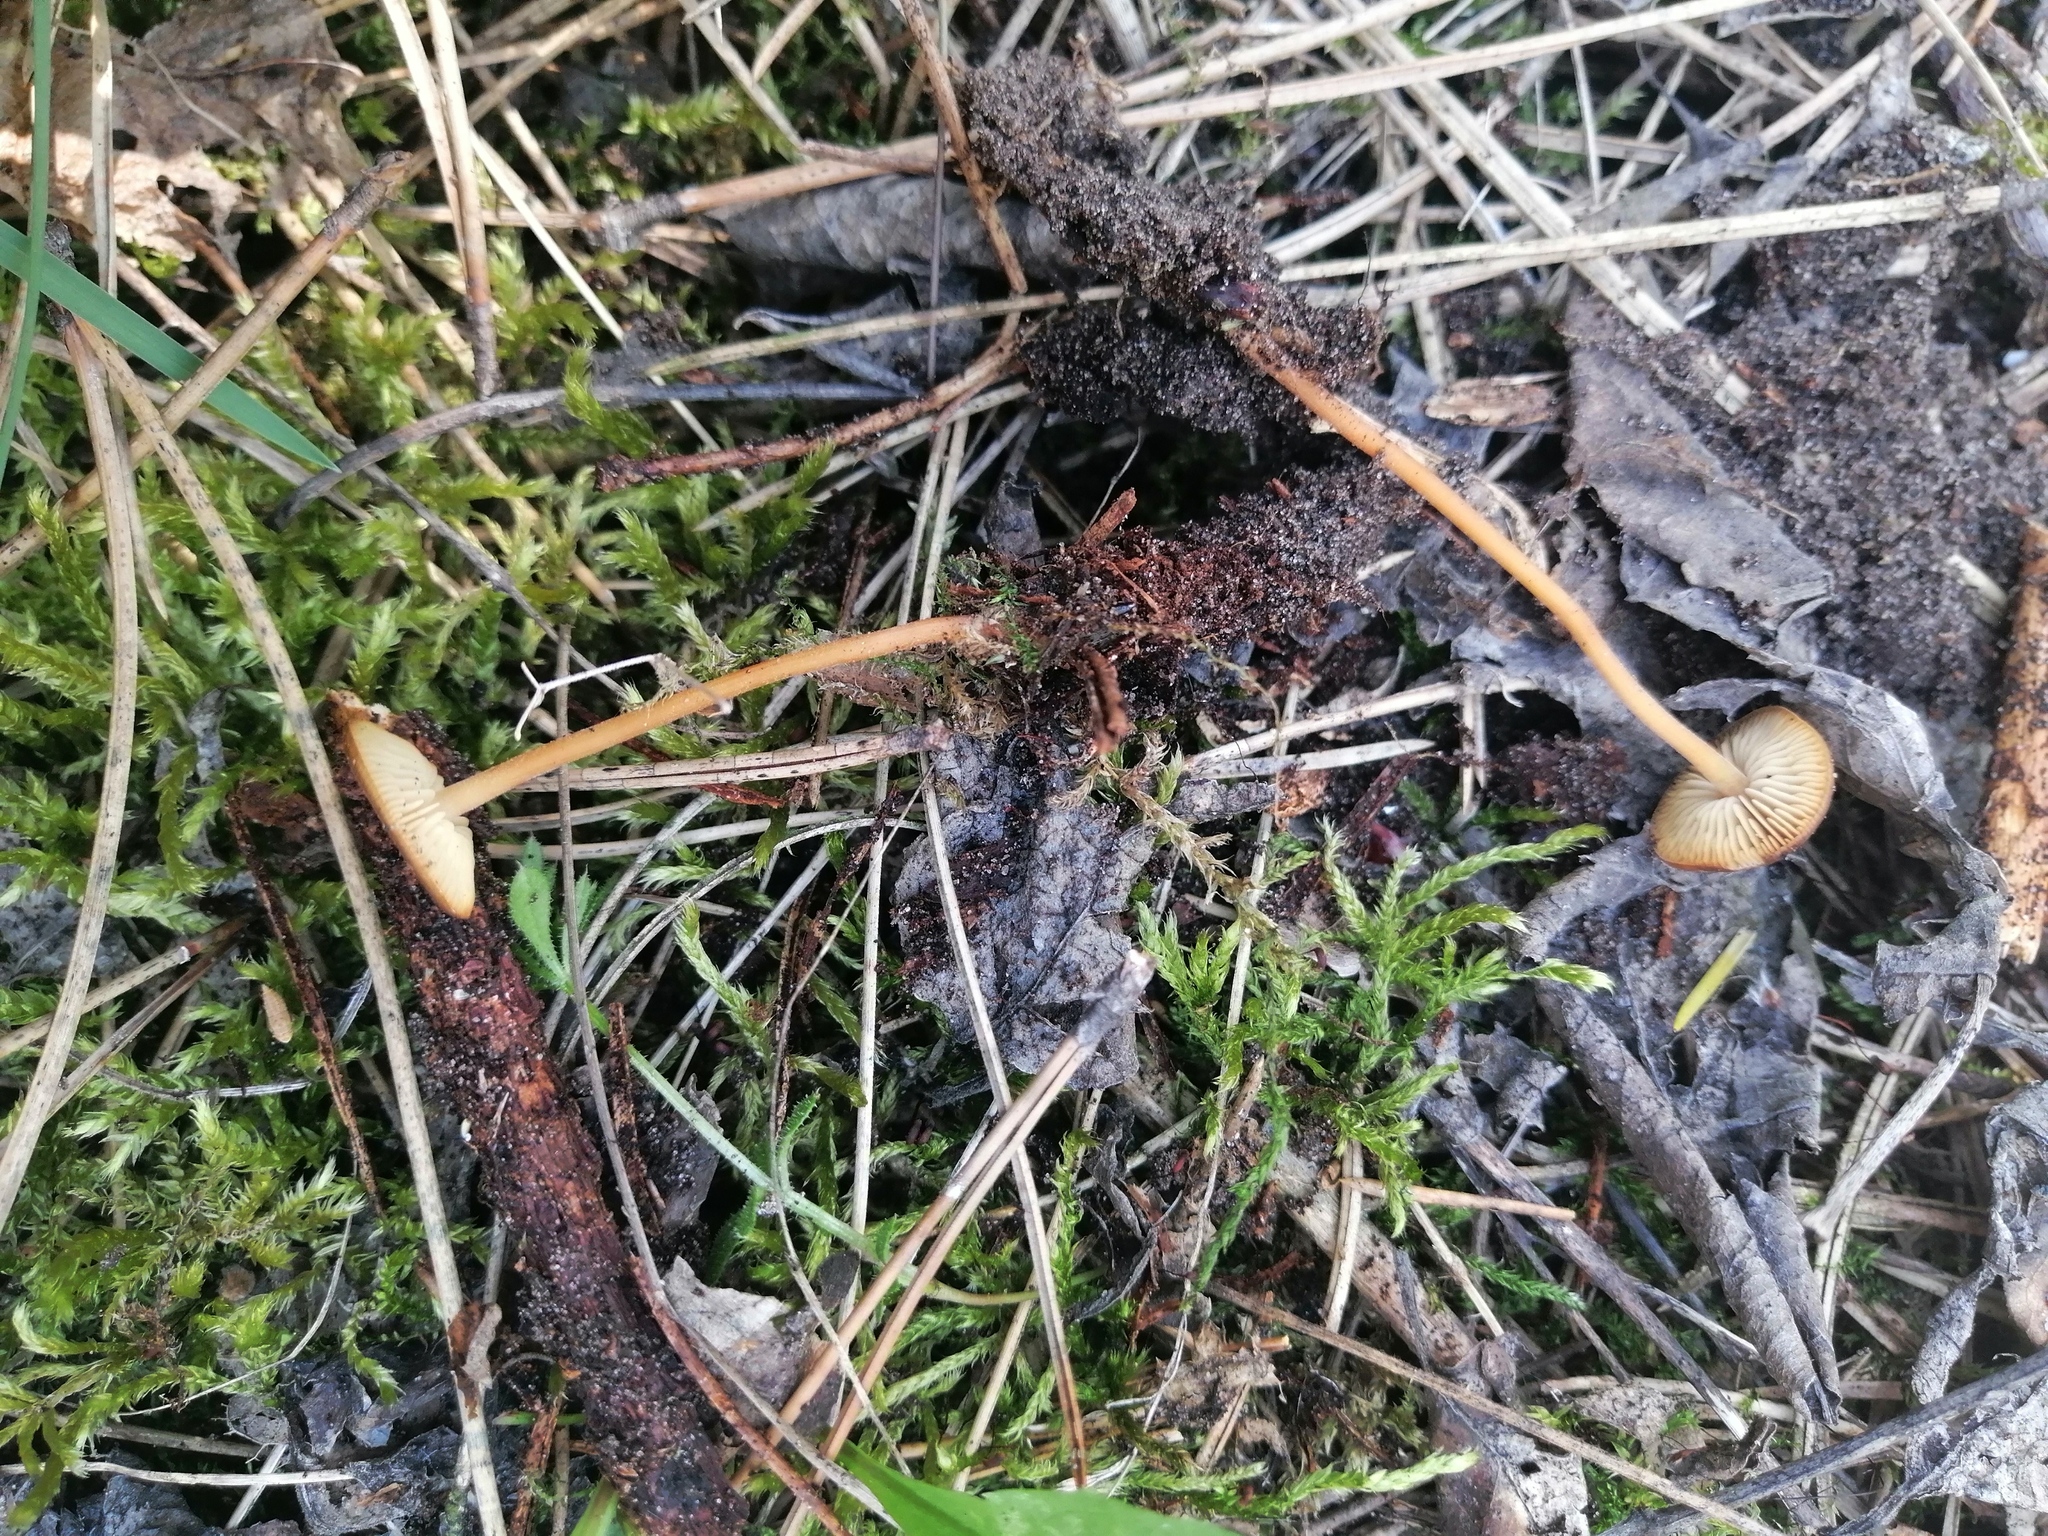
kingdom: Fungi
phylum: Basidiomycota
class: Agaricomycetes
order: Agaricales
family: Physalacriaceae
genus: Strobilurus
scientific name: Strobilurus stephanocystis
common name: Russian conecap
